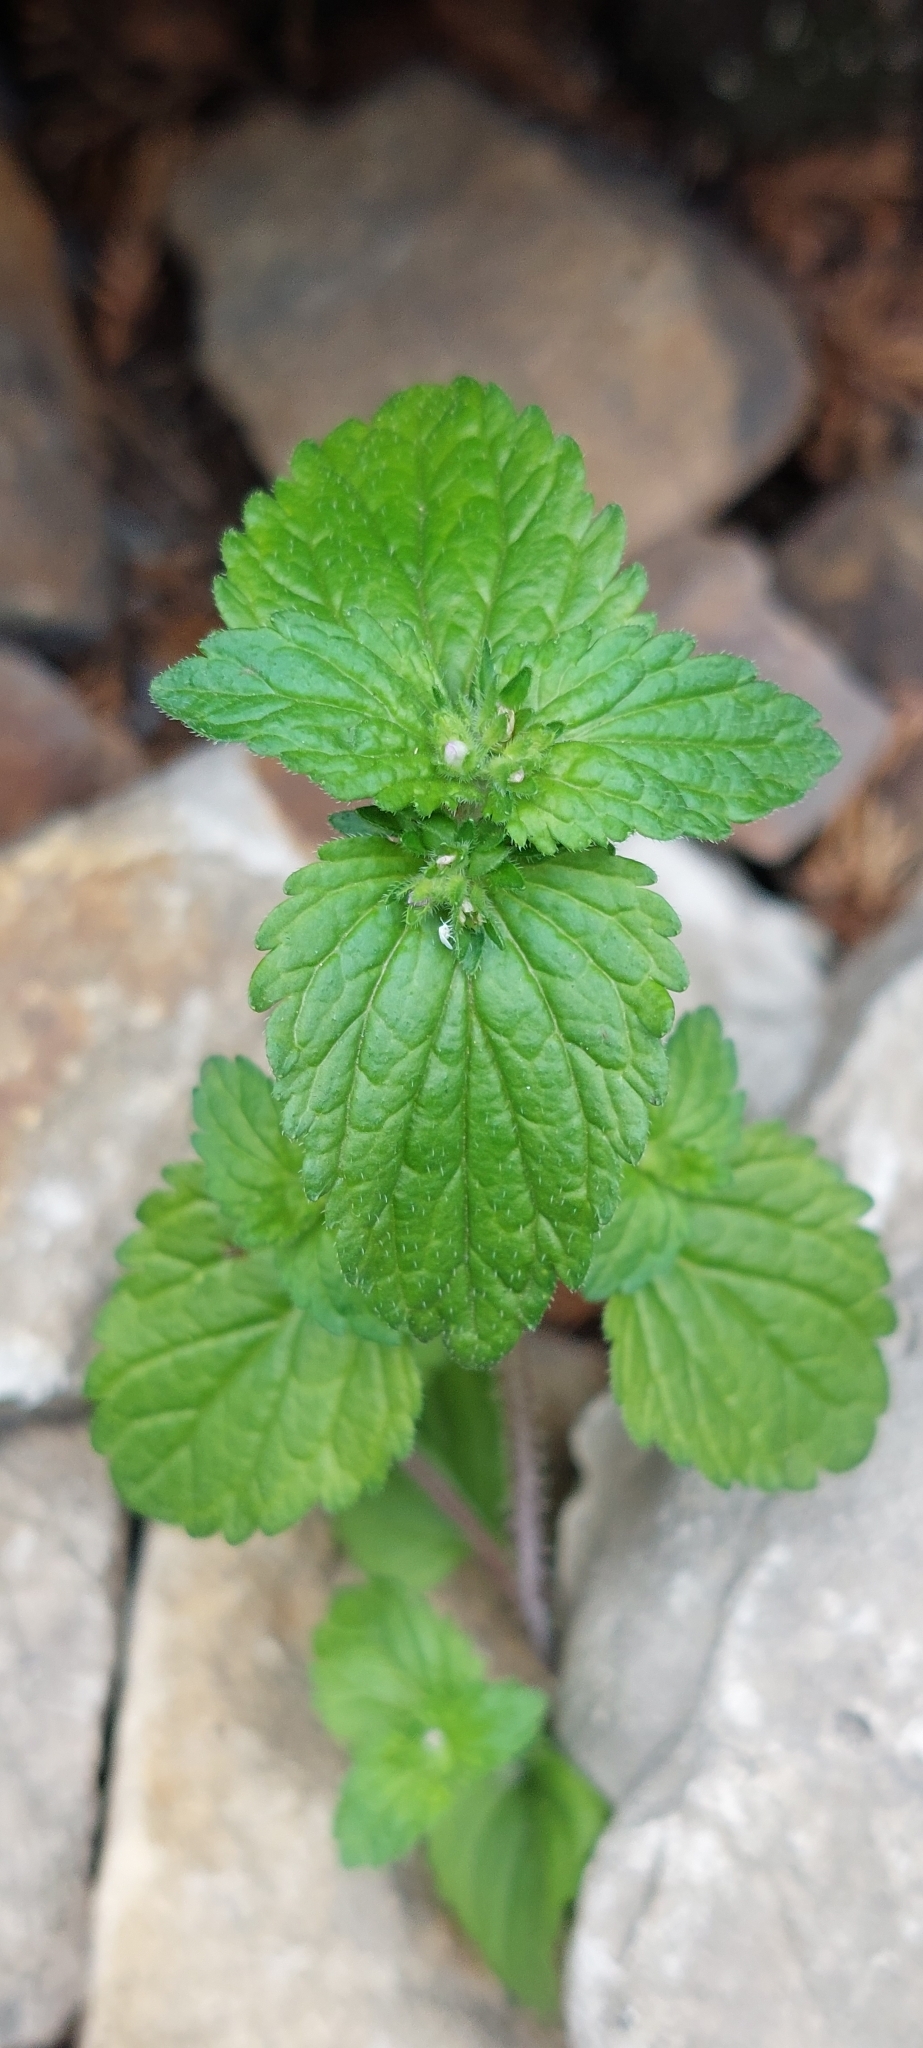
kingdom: Plantae
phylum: Tracheophyta
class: Magnoliopsida
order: Lamiales
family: Plantaginaceae
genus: Veronica
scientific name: Veronica javanica
